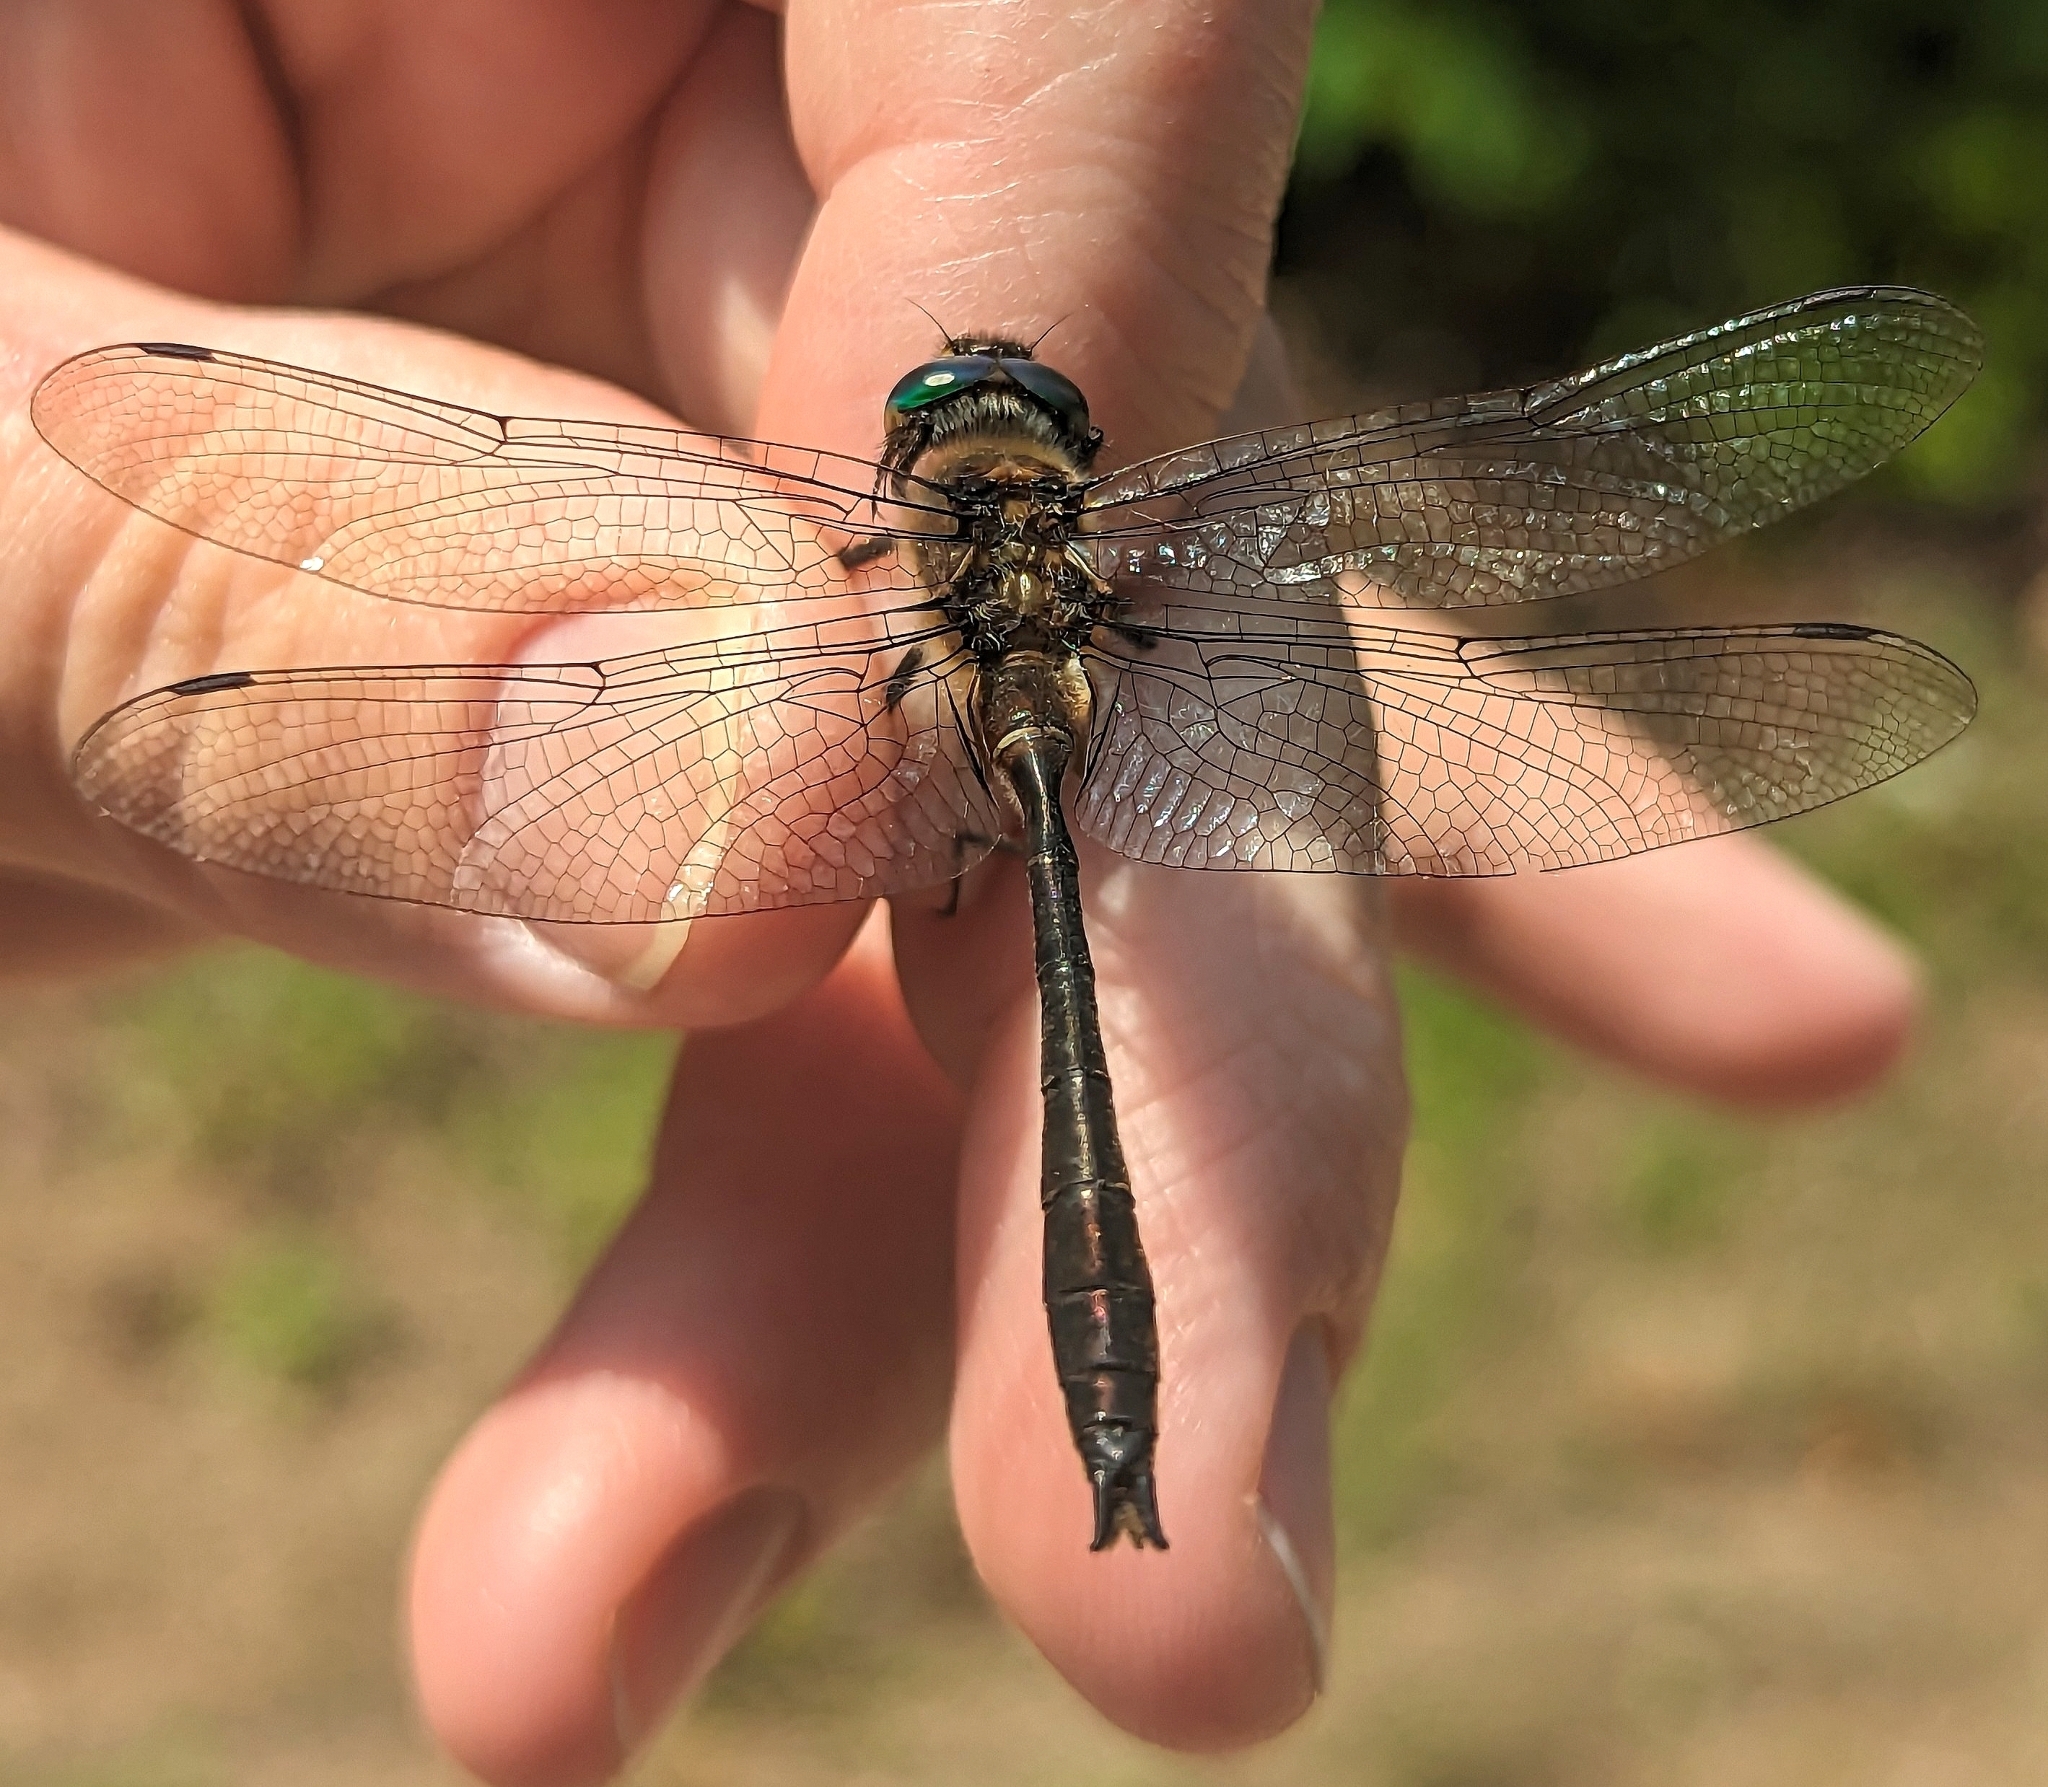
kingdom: Animalia
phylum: Arthropoda
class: Insecta
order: Odonata
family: Corduliidae
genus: Cordulia
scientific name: Cordulia shurtleffii
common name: American emerald
